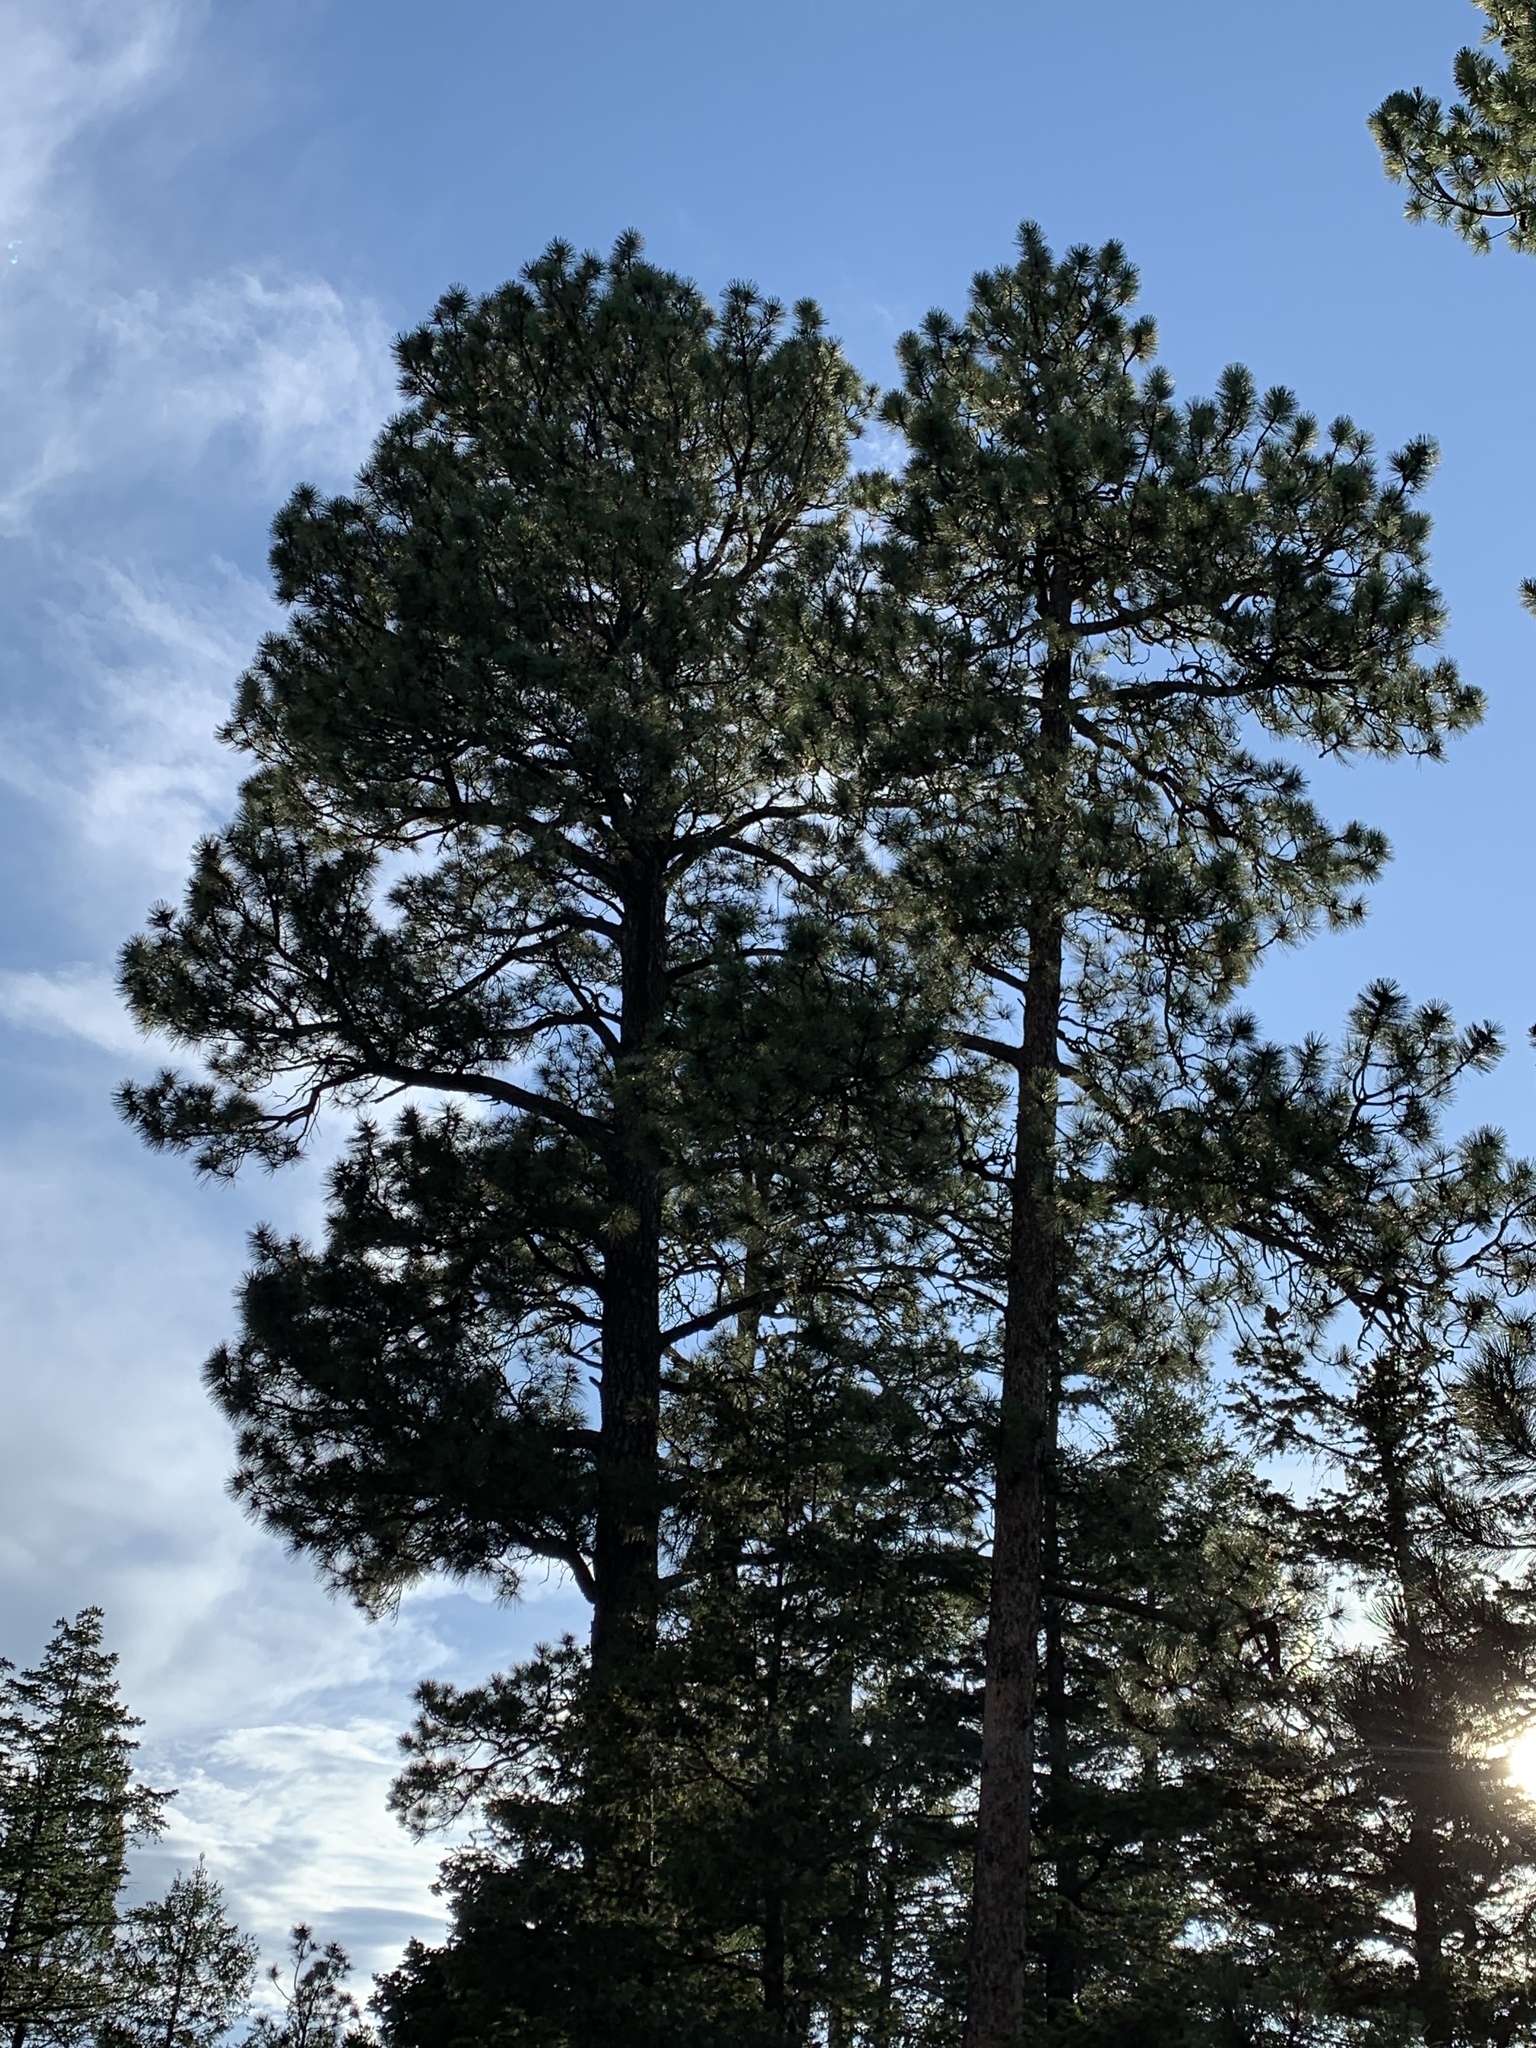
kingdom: Plantae
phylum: Tracheophyta
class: Pinopsida
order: Pinales
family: Pinaceae
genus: Pinus
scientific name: Pinus ponderosa
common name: Western yellow-pine
